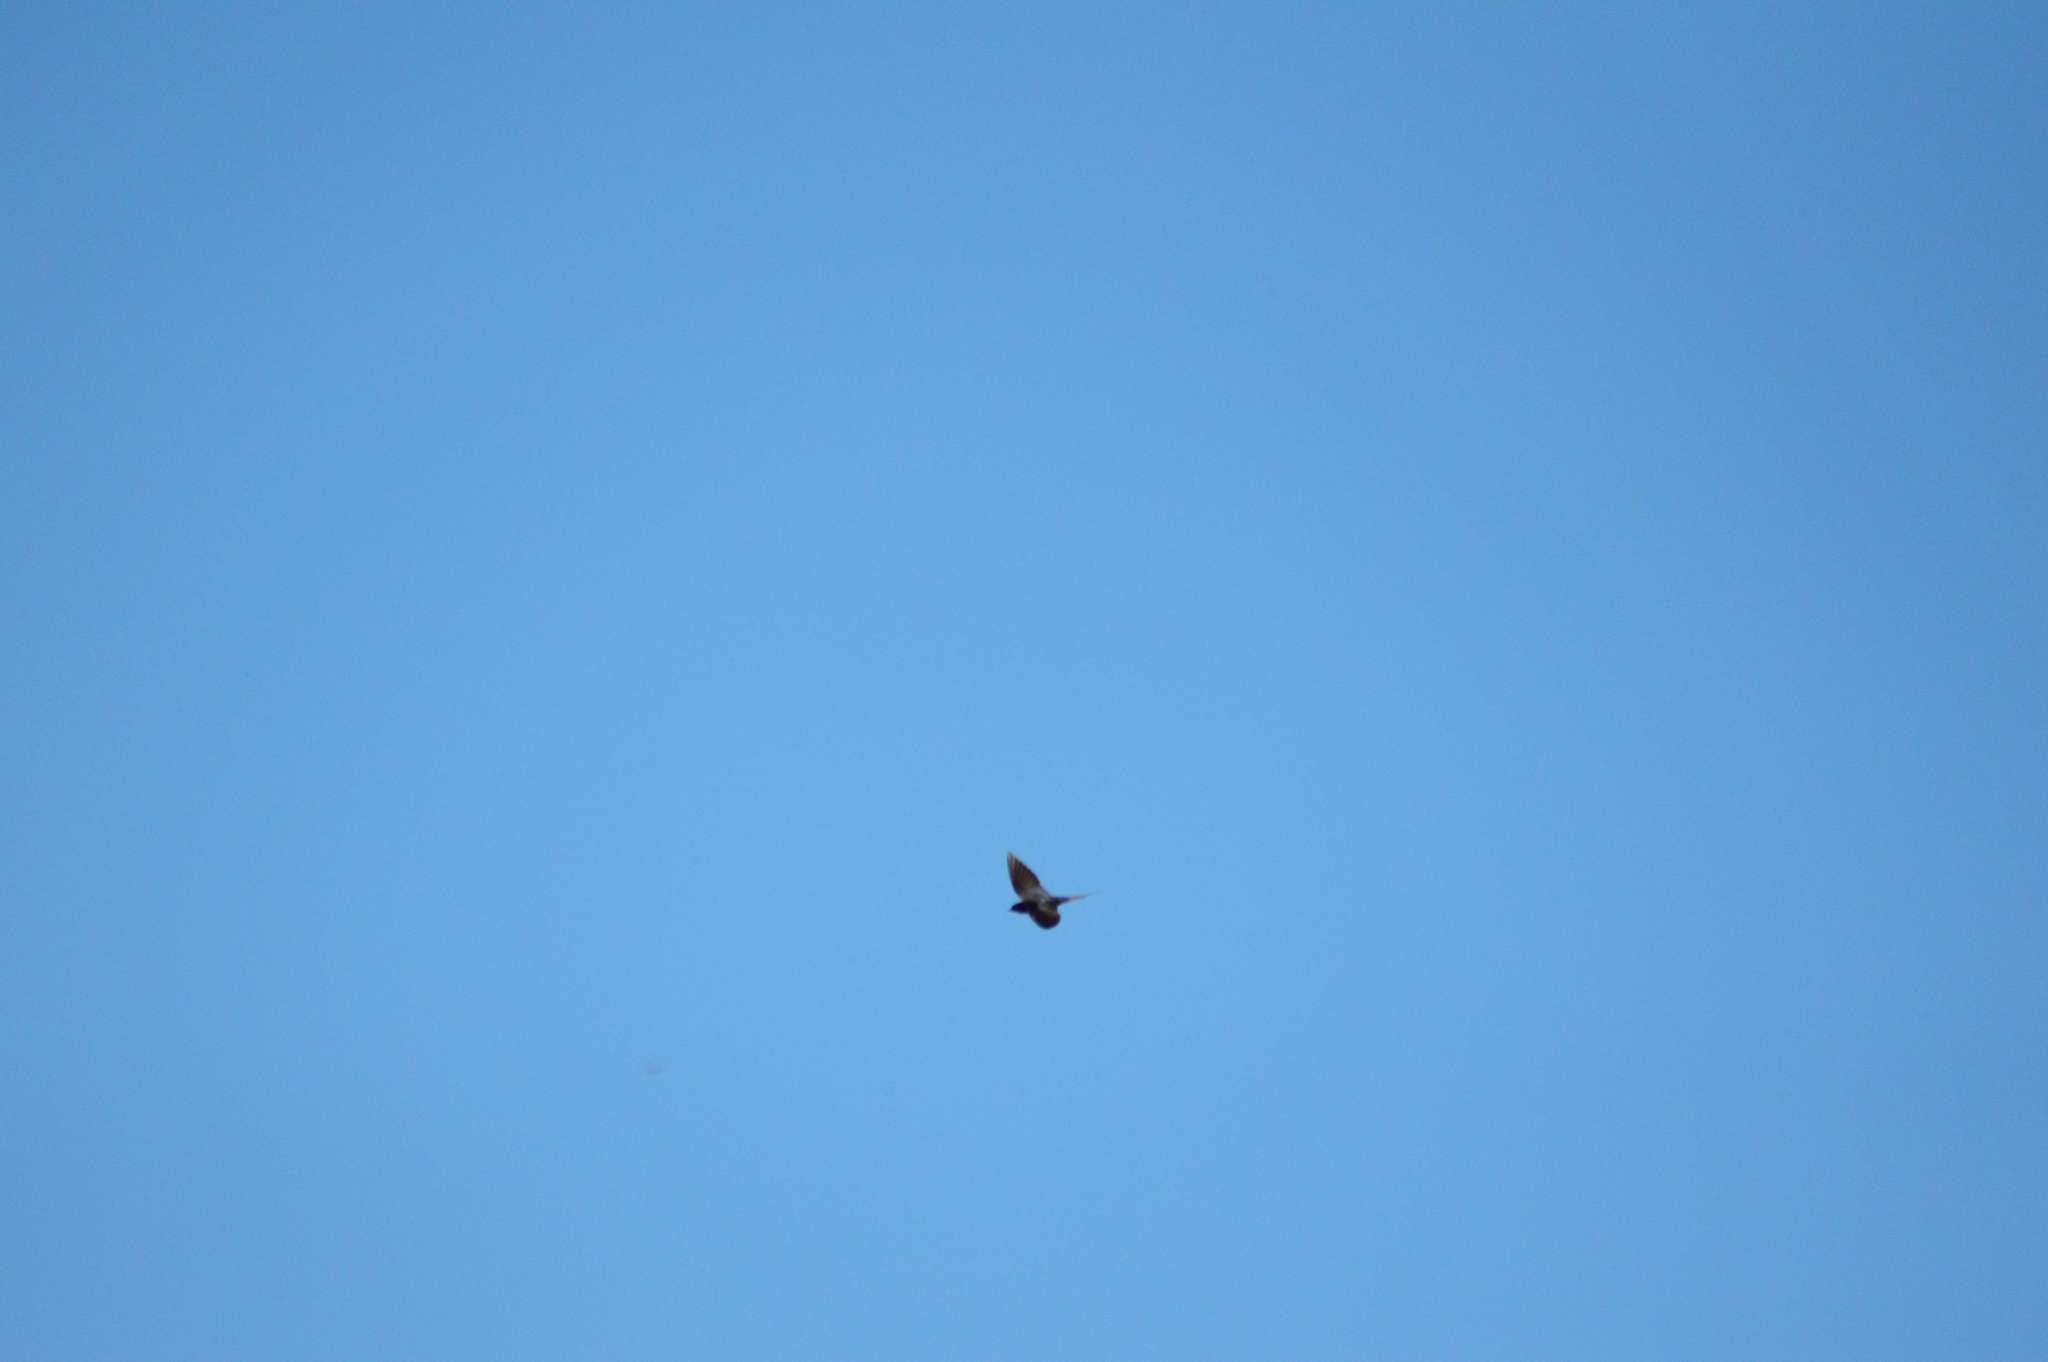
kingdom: Animalia
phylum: Chordata
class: Aves
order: Passeriformes
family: Hirundinidae
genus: Hirundo
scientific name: Hirundo rustica
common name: Barn swallow
